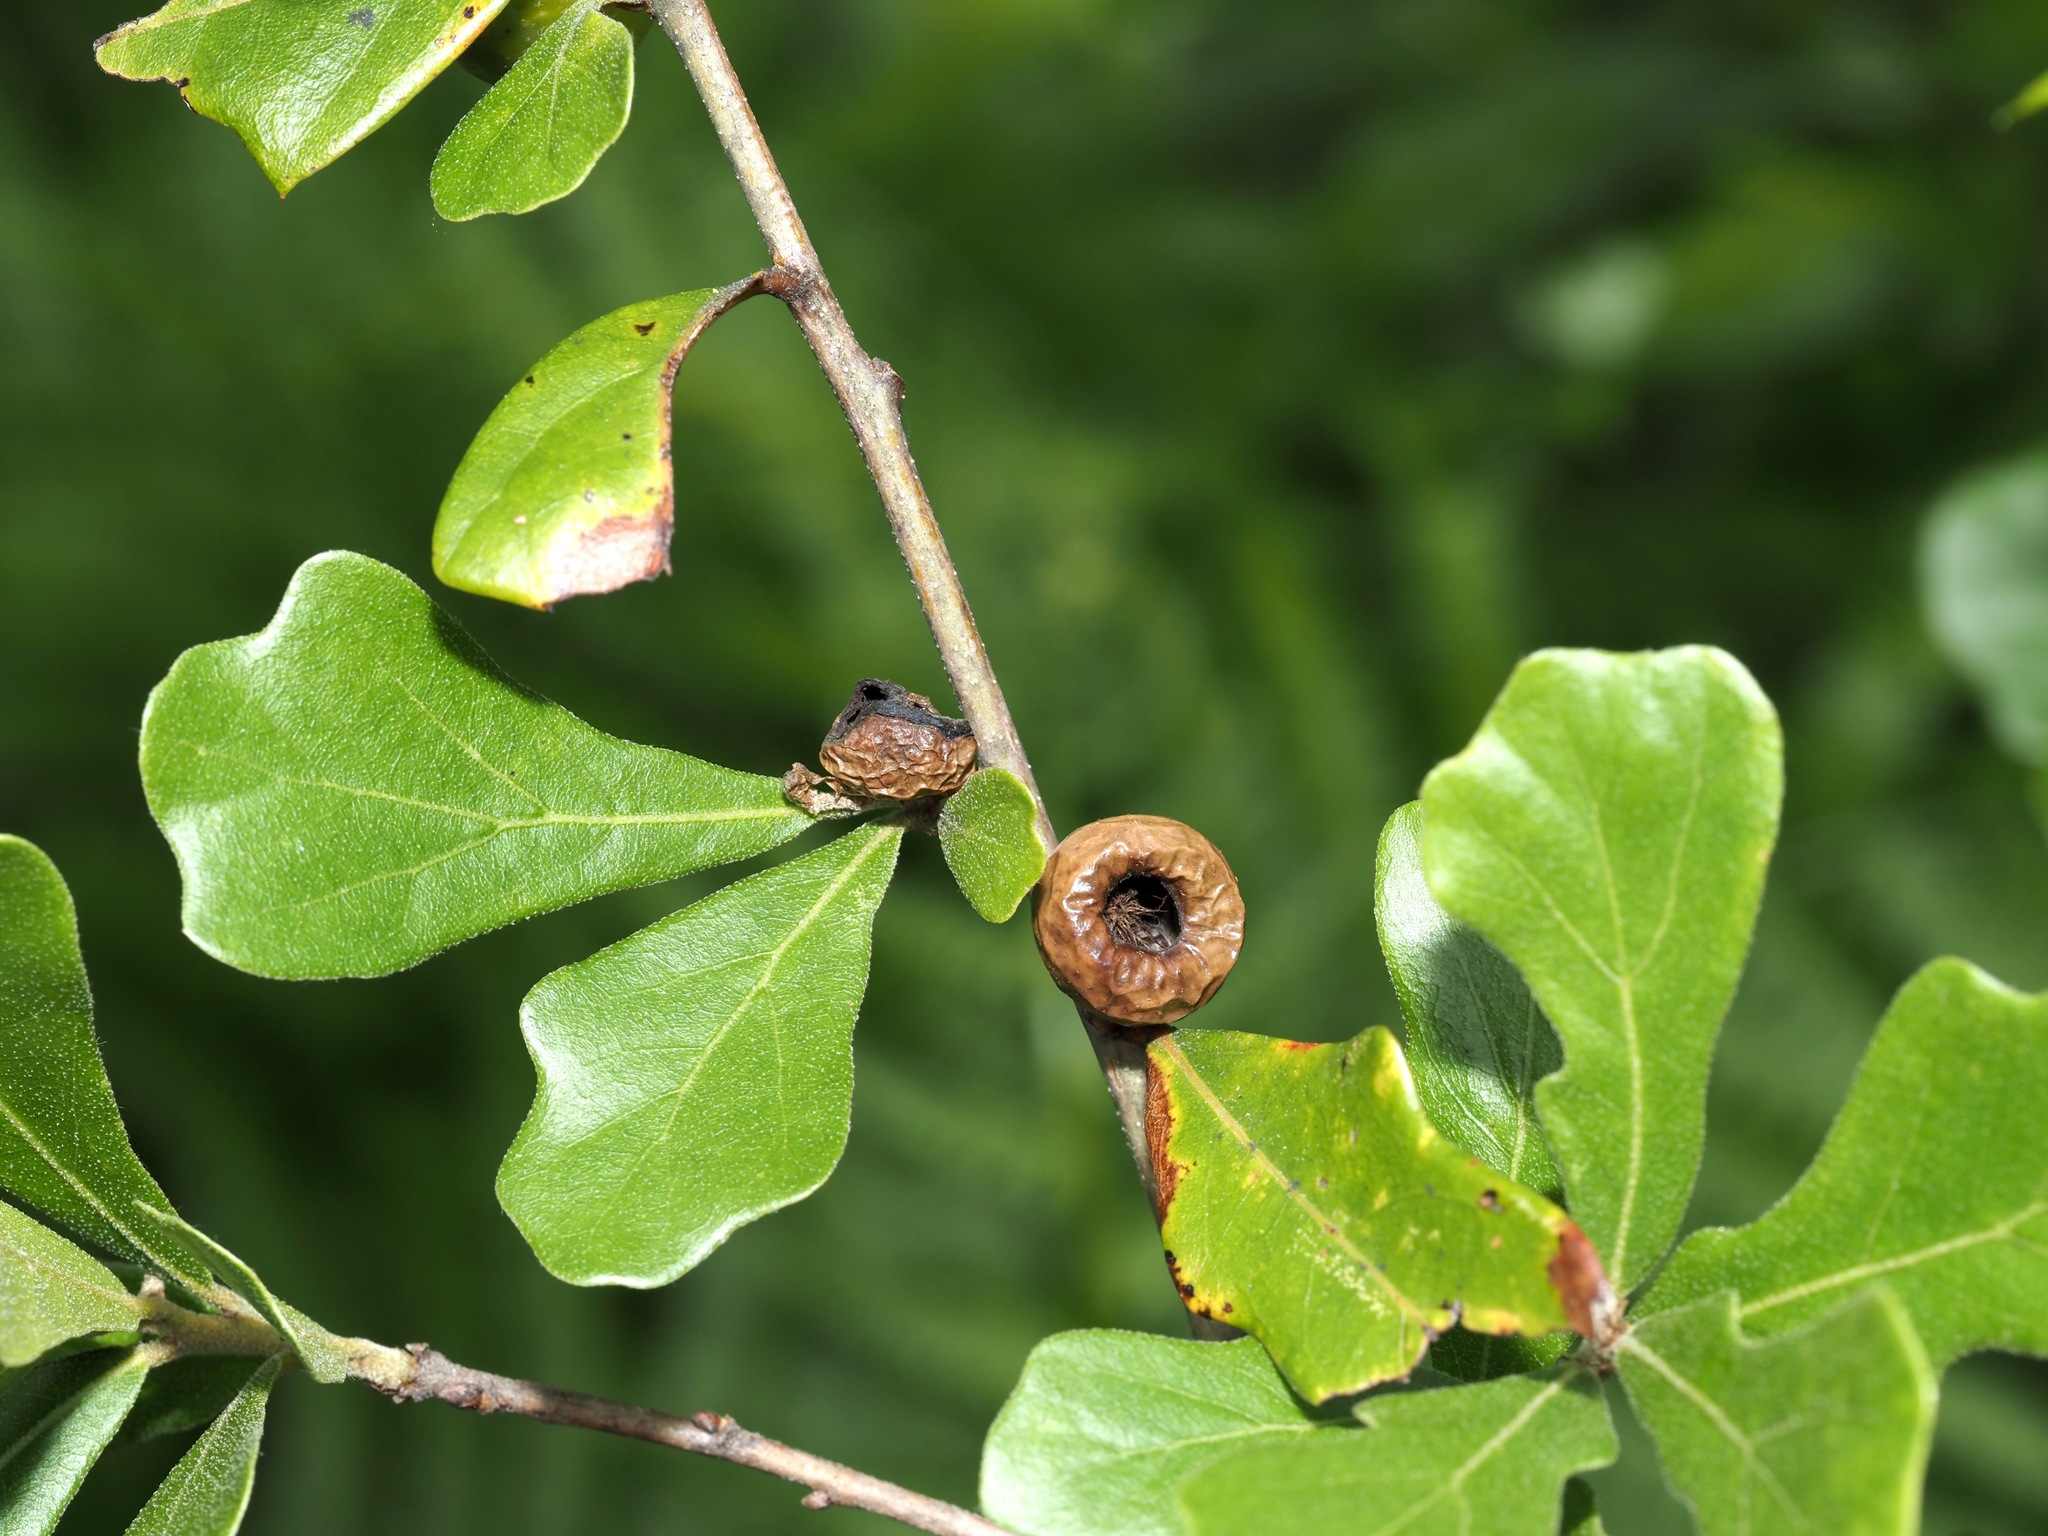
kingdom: Animalia
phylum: Arthropoda
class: Insecta
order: Hymenoptera
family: Cynipidae
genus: Amphibolips
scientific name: Amphibolips
